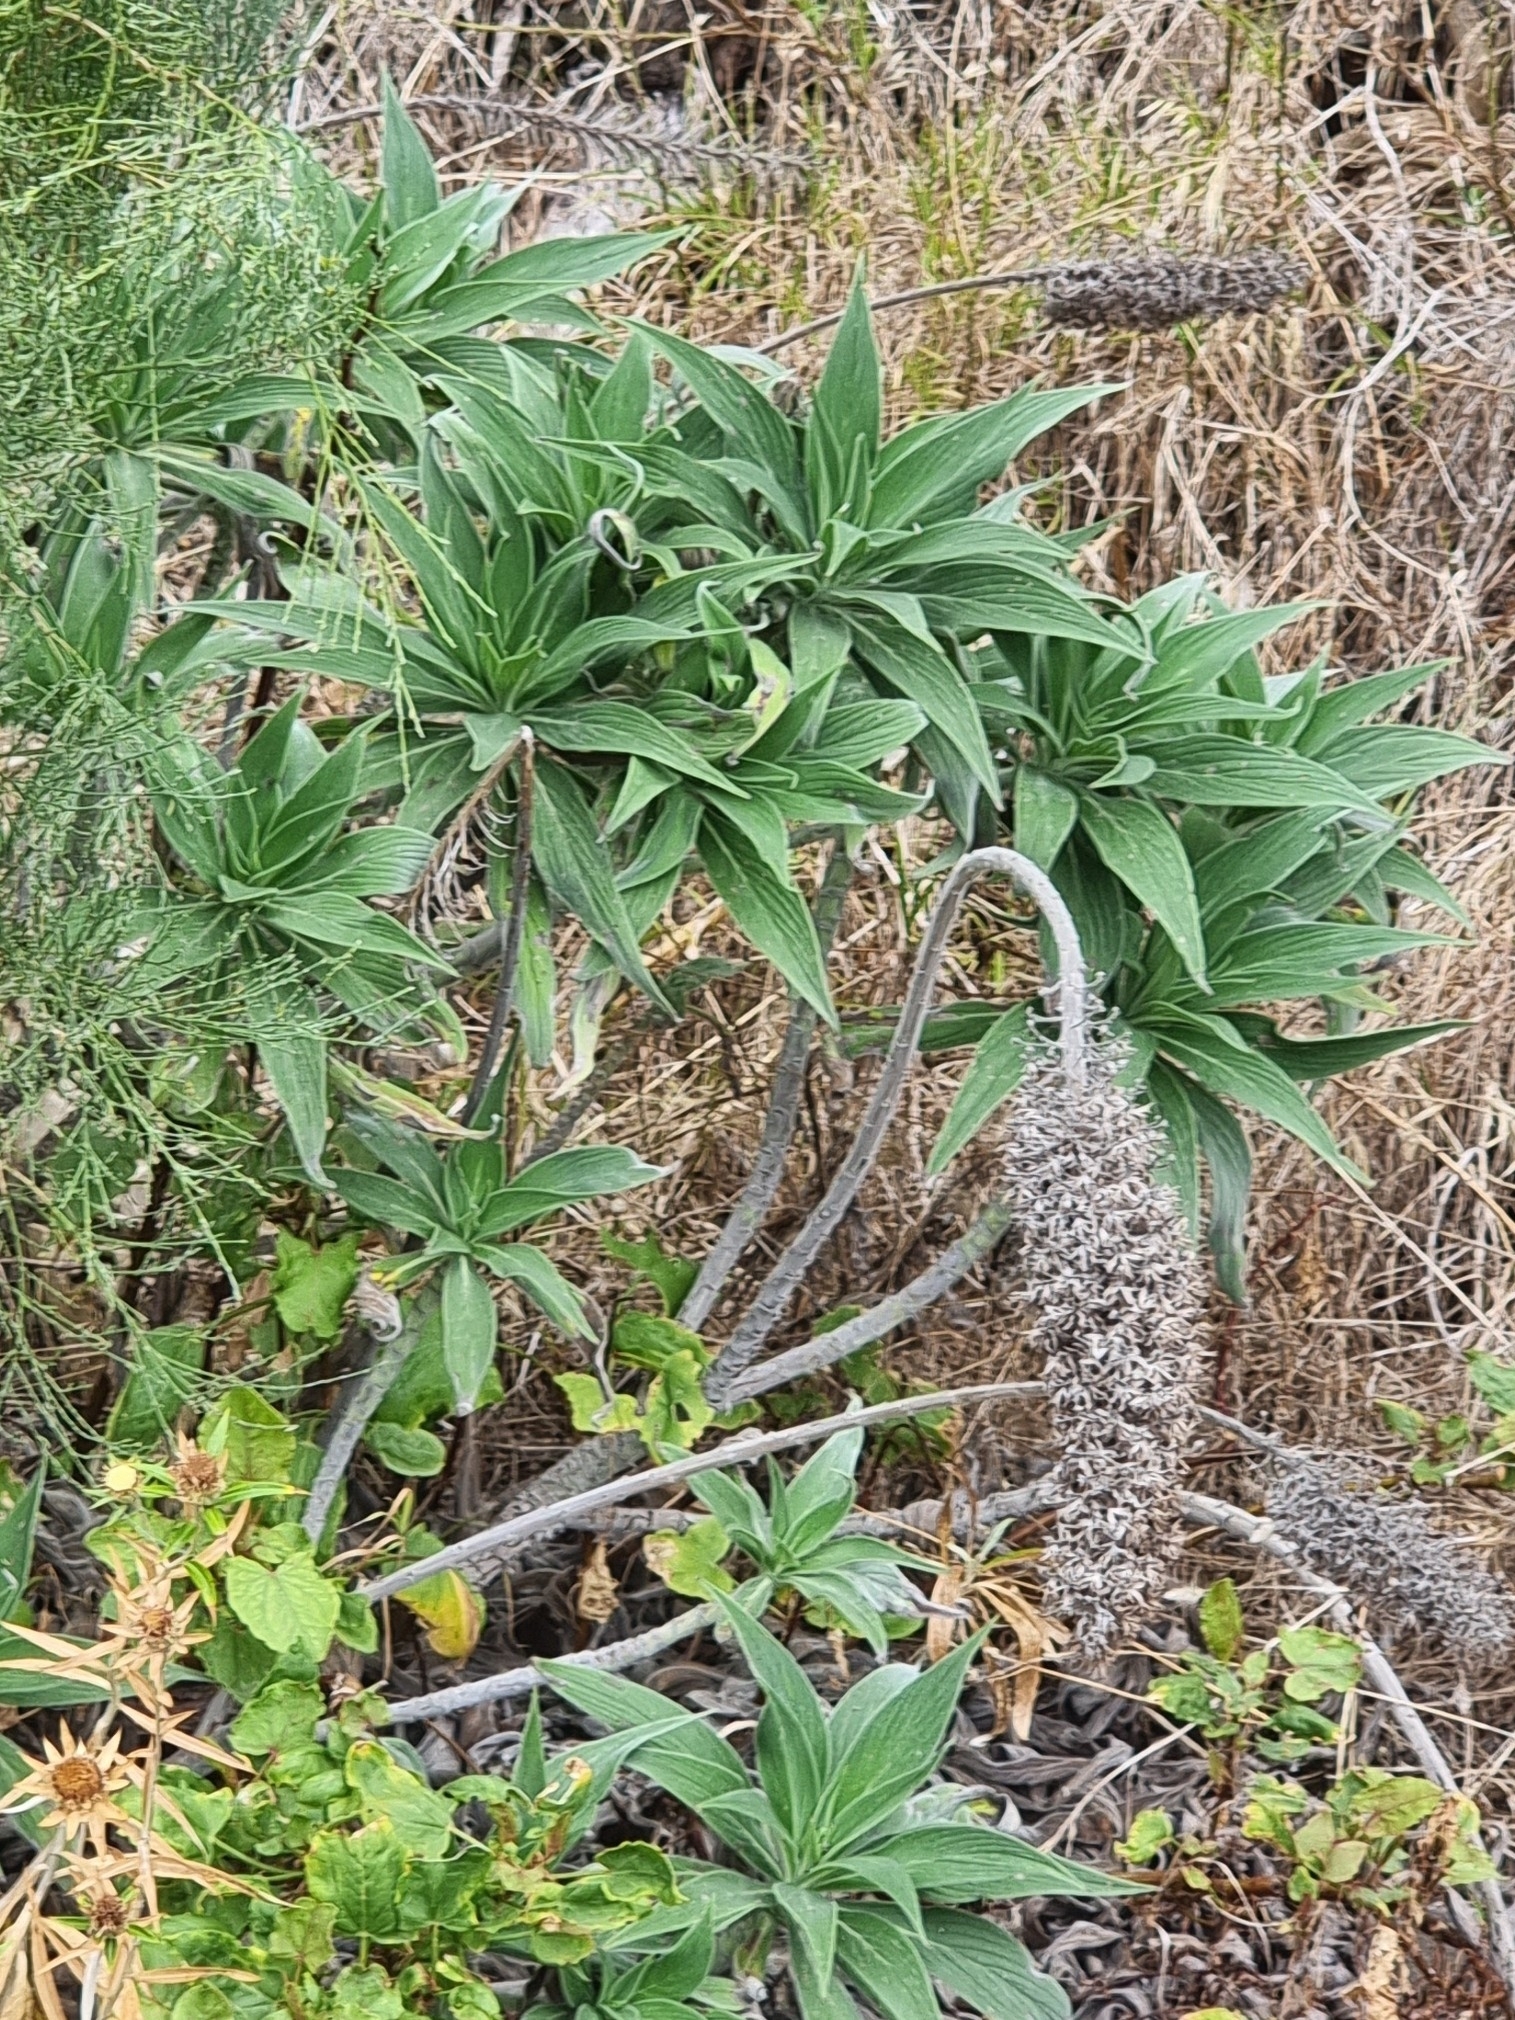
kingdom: Plantae
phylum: Tracheophyta
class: Magnoliopsida
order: Boraginales
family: Boraginaceae
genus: Echium
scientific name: Echium candicans
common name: Pride of madeira
